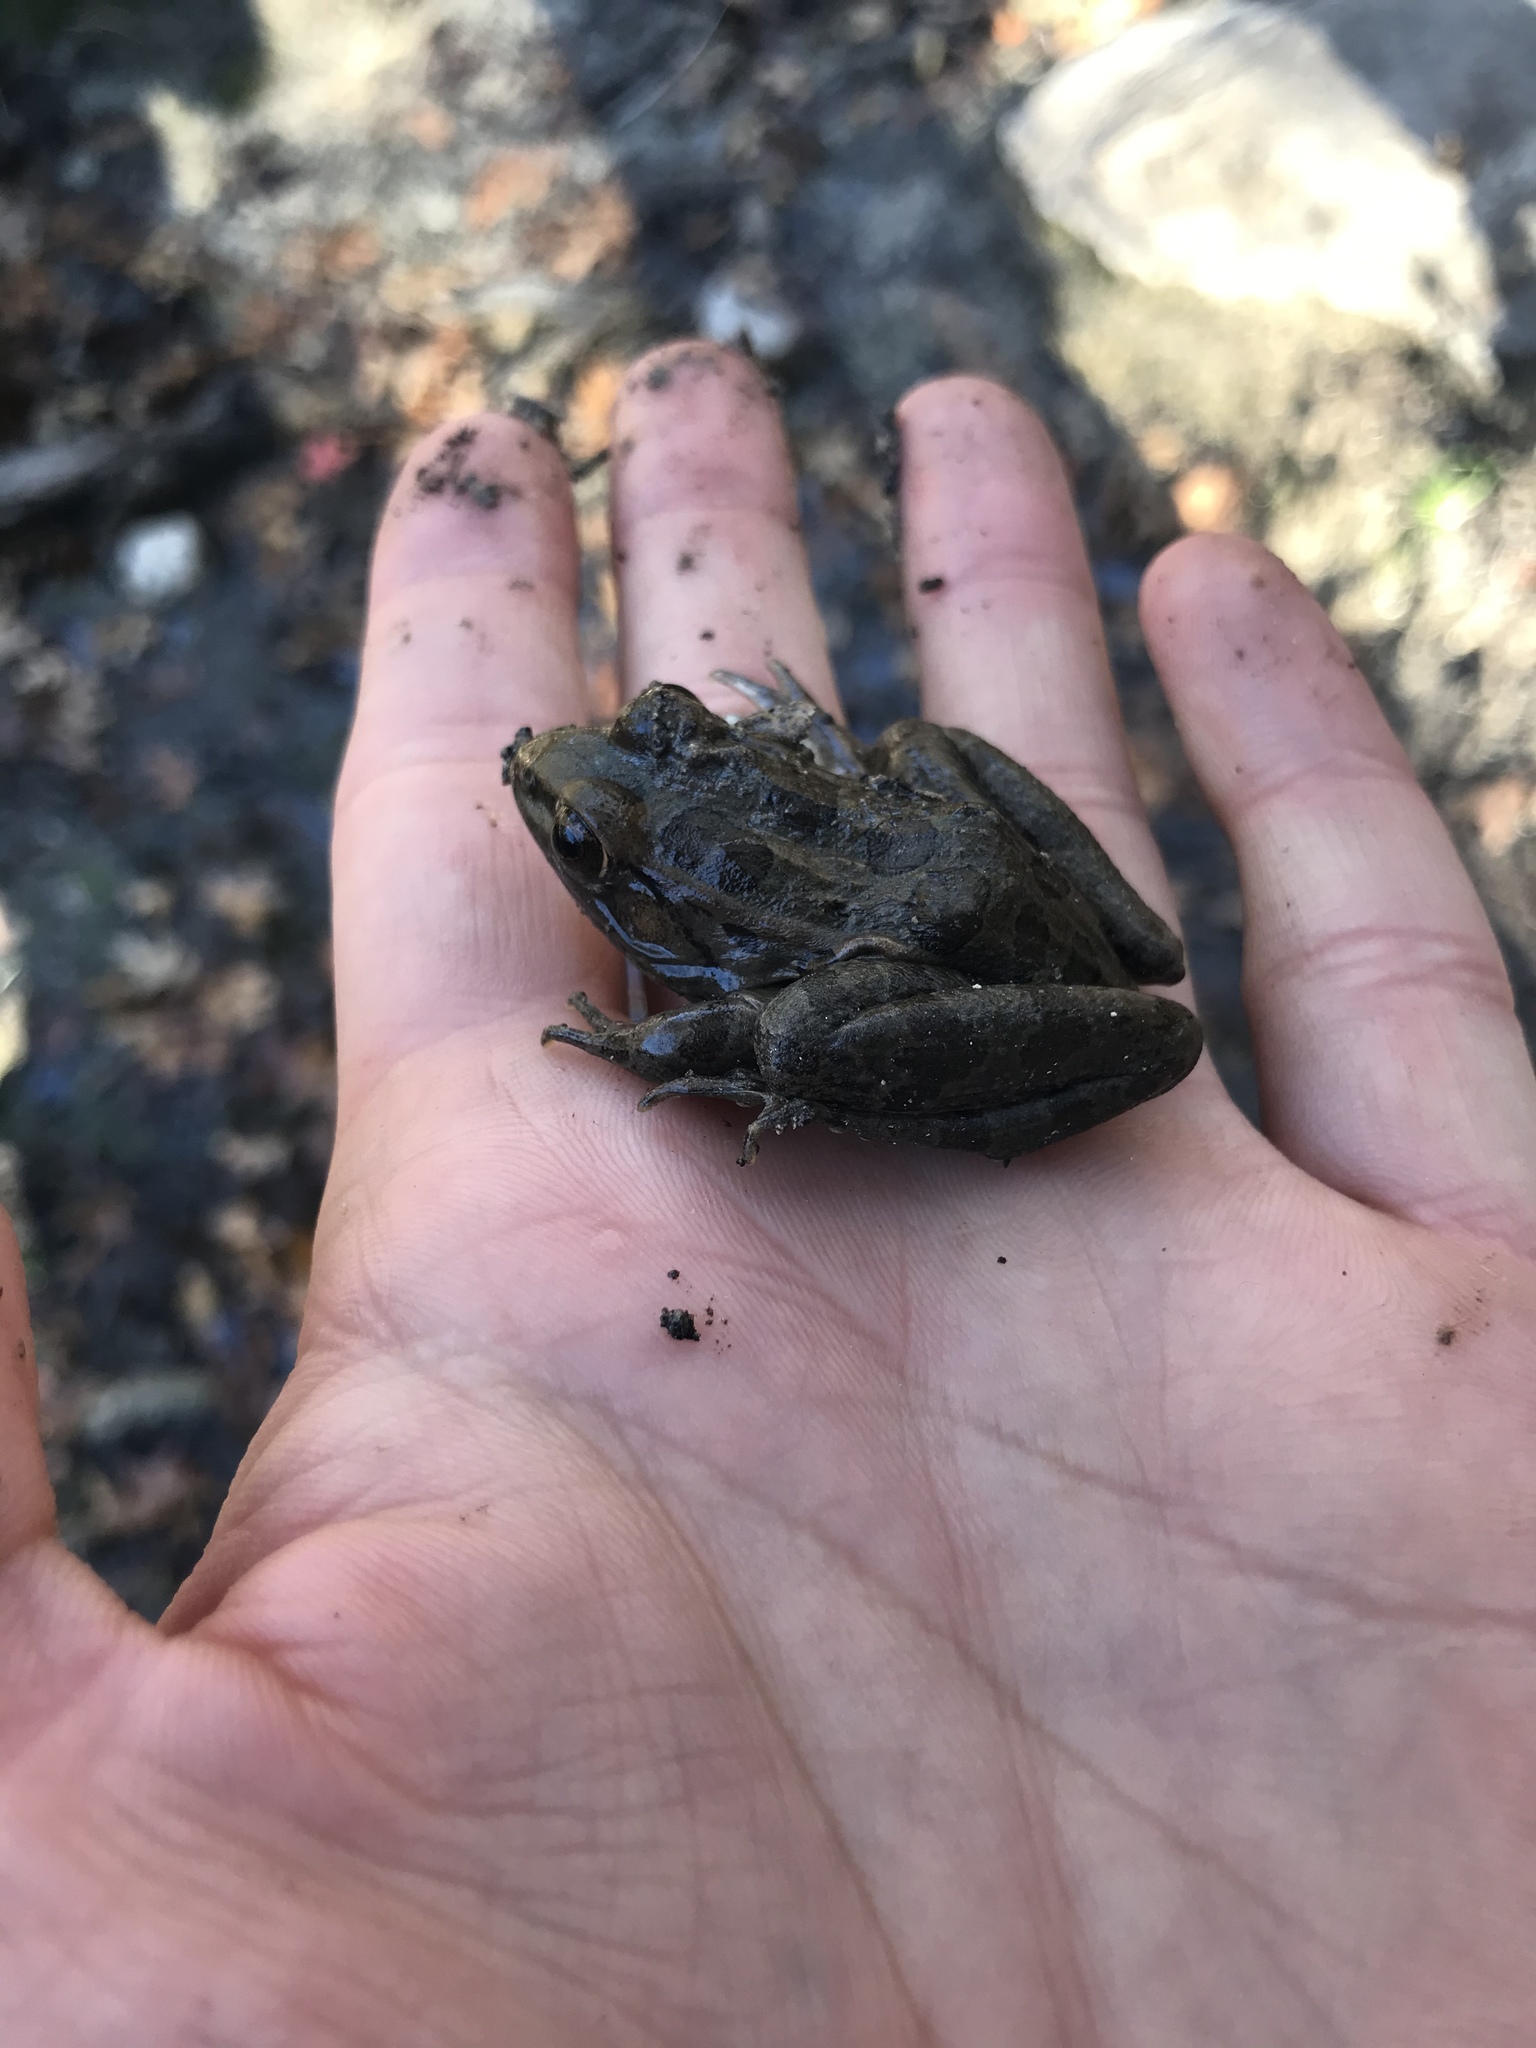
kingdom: Animalia
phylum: Chordata
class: Amphibia
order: Anura
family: Ranidae
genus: Lithobates
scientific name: Lithobates berlandieri
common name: Rio grande leopard frog
